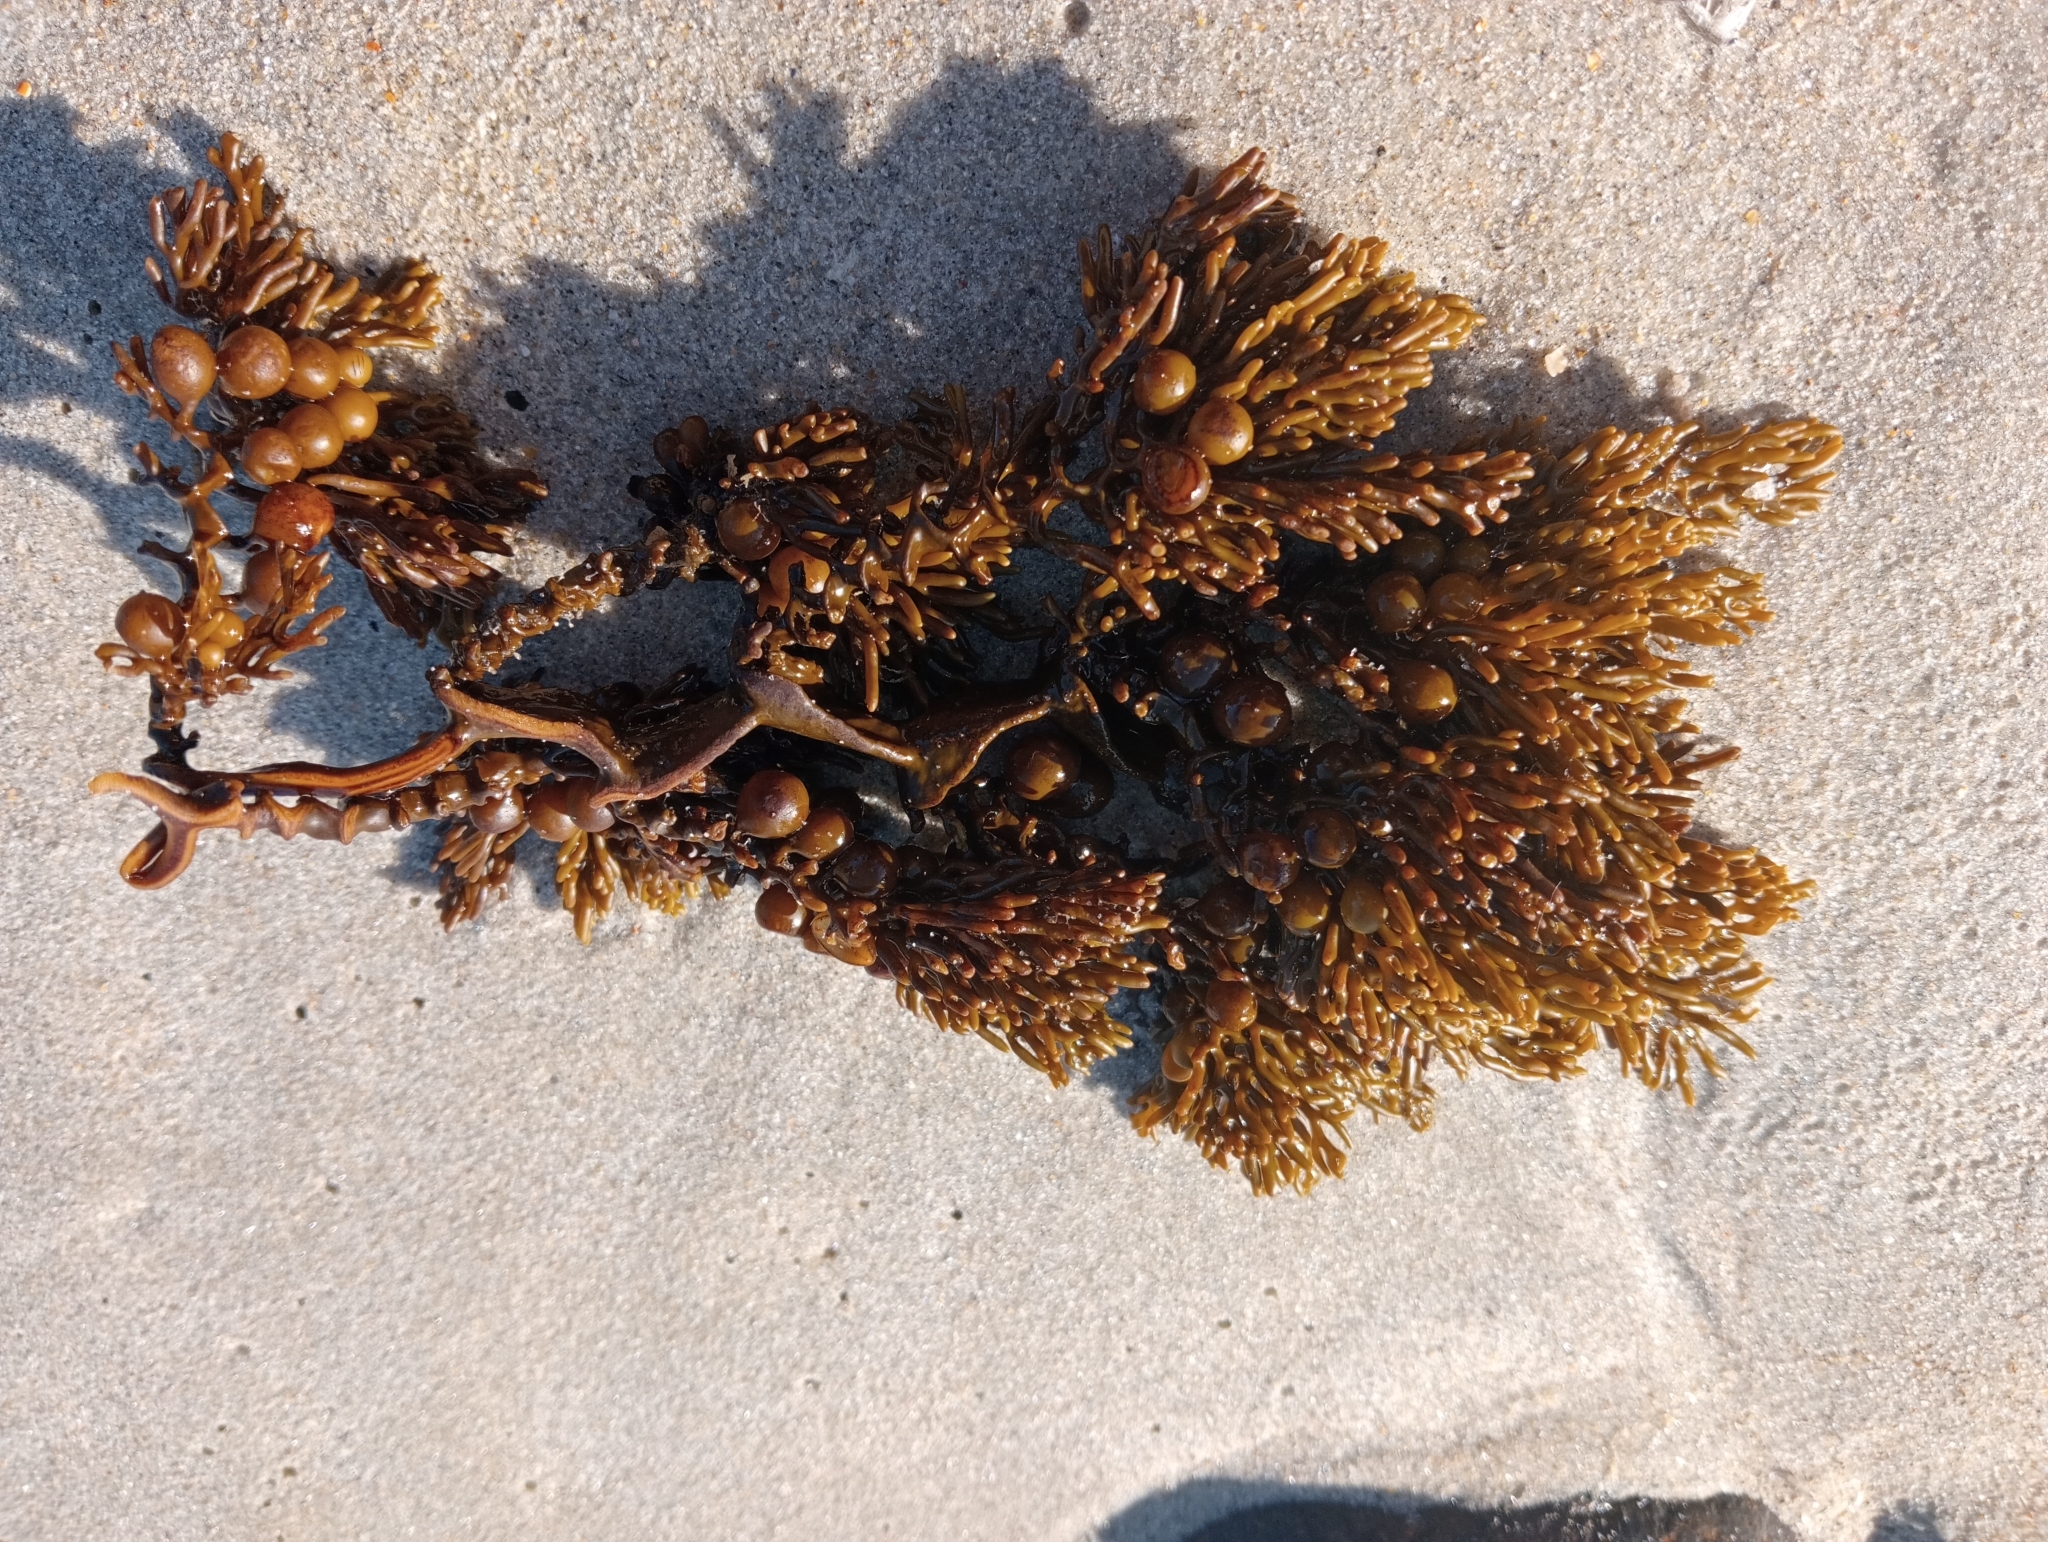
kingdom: Chromista
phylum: Ochrophyta
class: Phaeophyceae
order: Fucales
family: Sargassaceae
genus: Cystophora
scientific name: Cystophora scalaris
